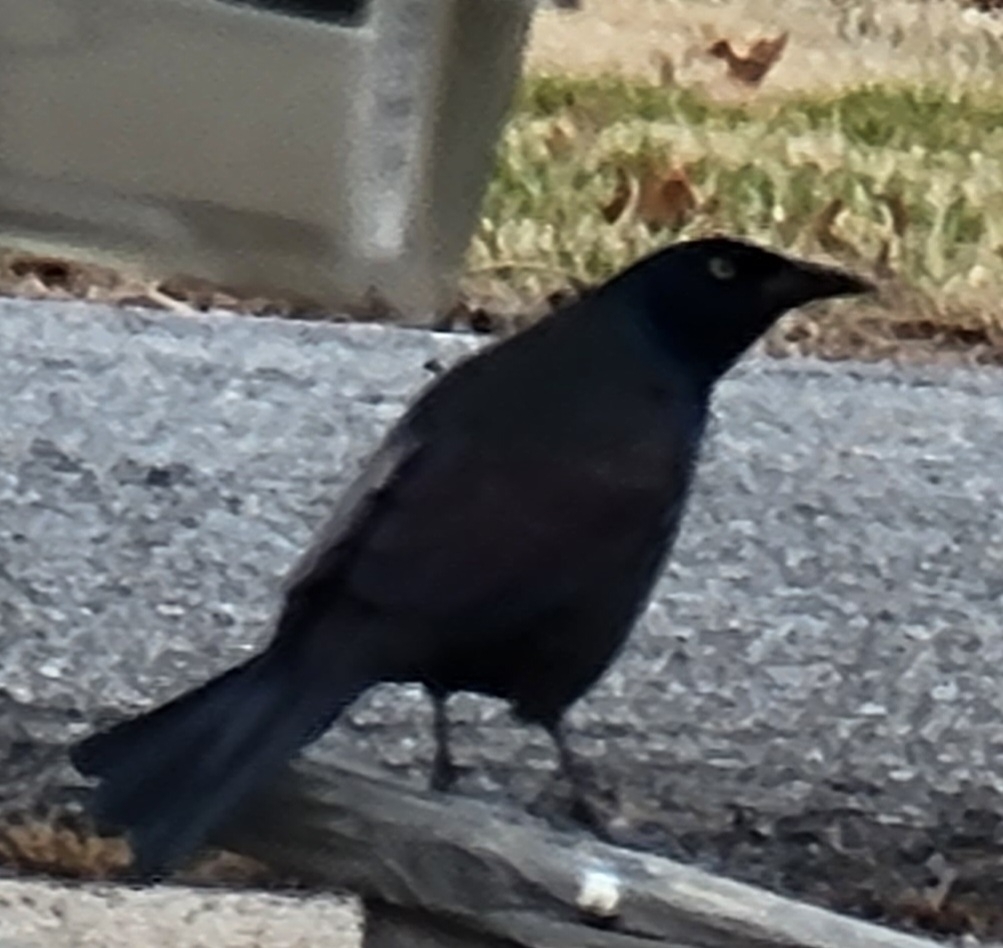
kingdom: Animalia
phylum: Chordata
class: Aves
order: Passeriformes
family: Icteridae
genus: Quiscalus
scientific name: Quiscalus quiscula
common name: Common grackle
